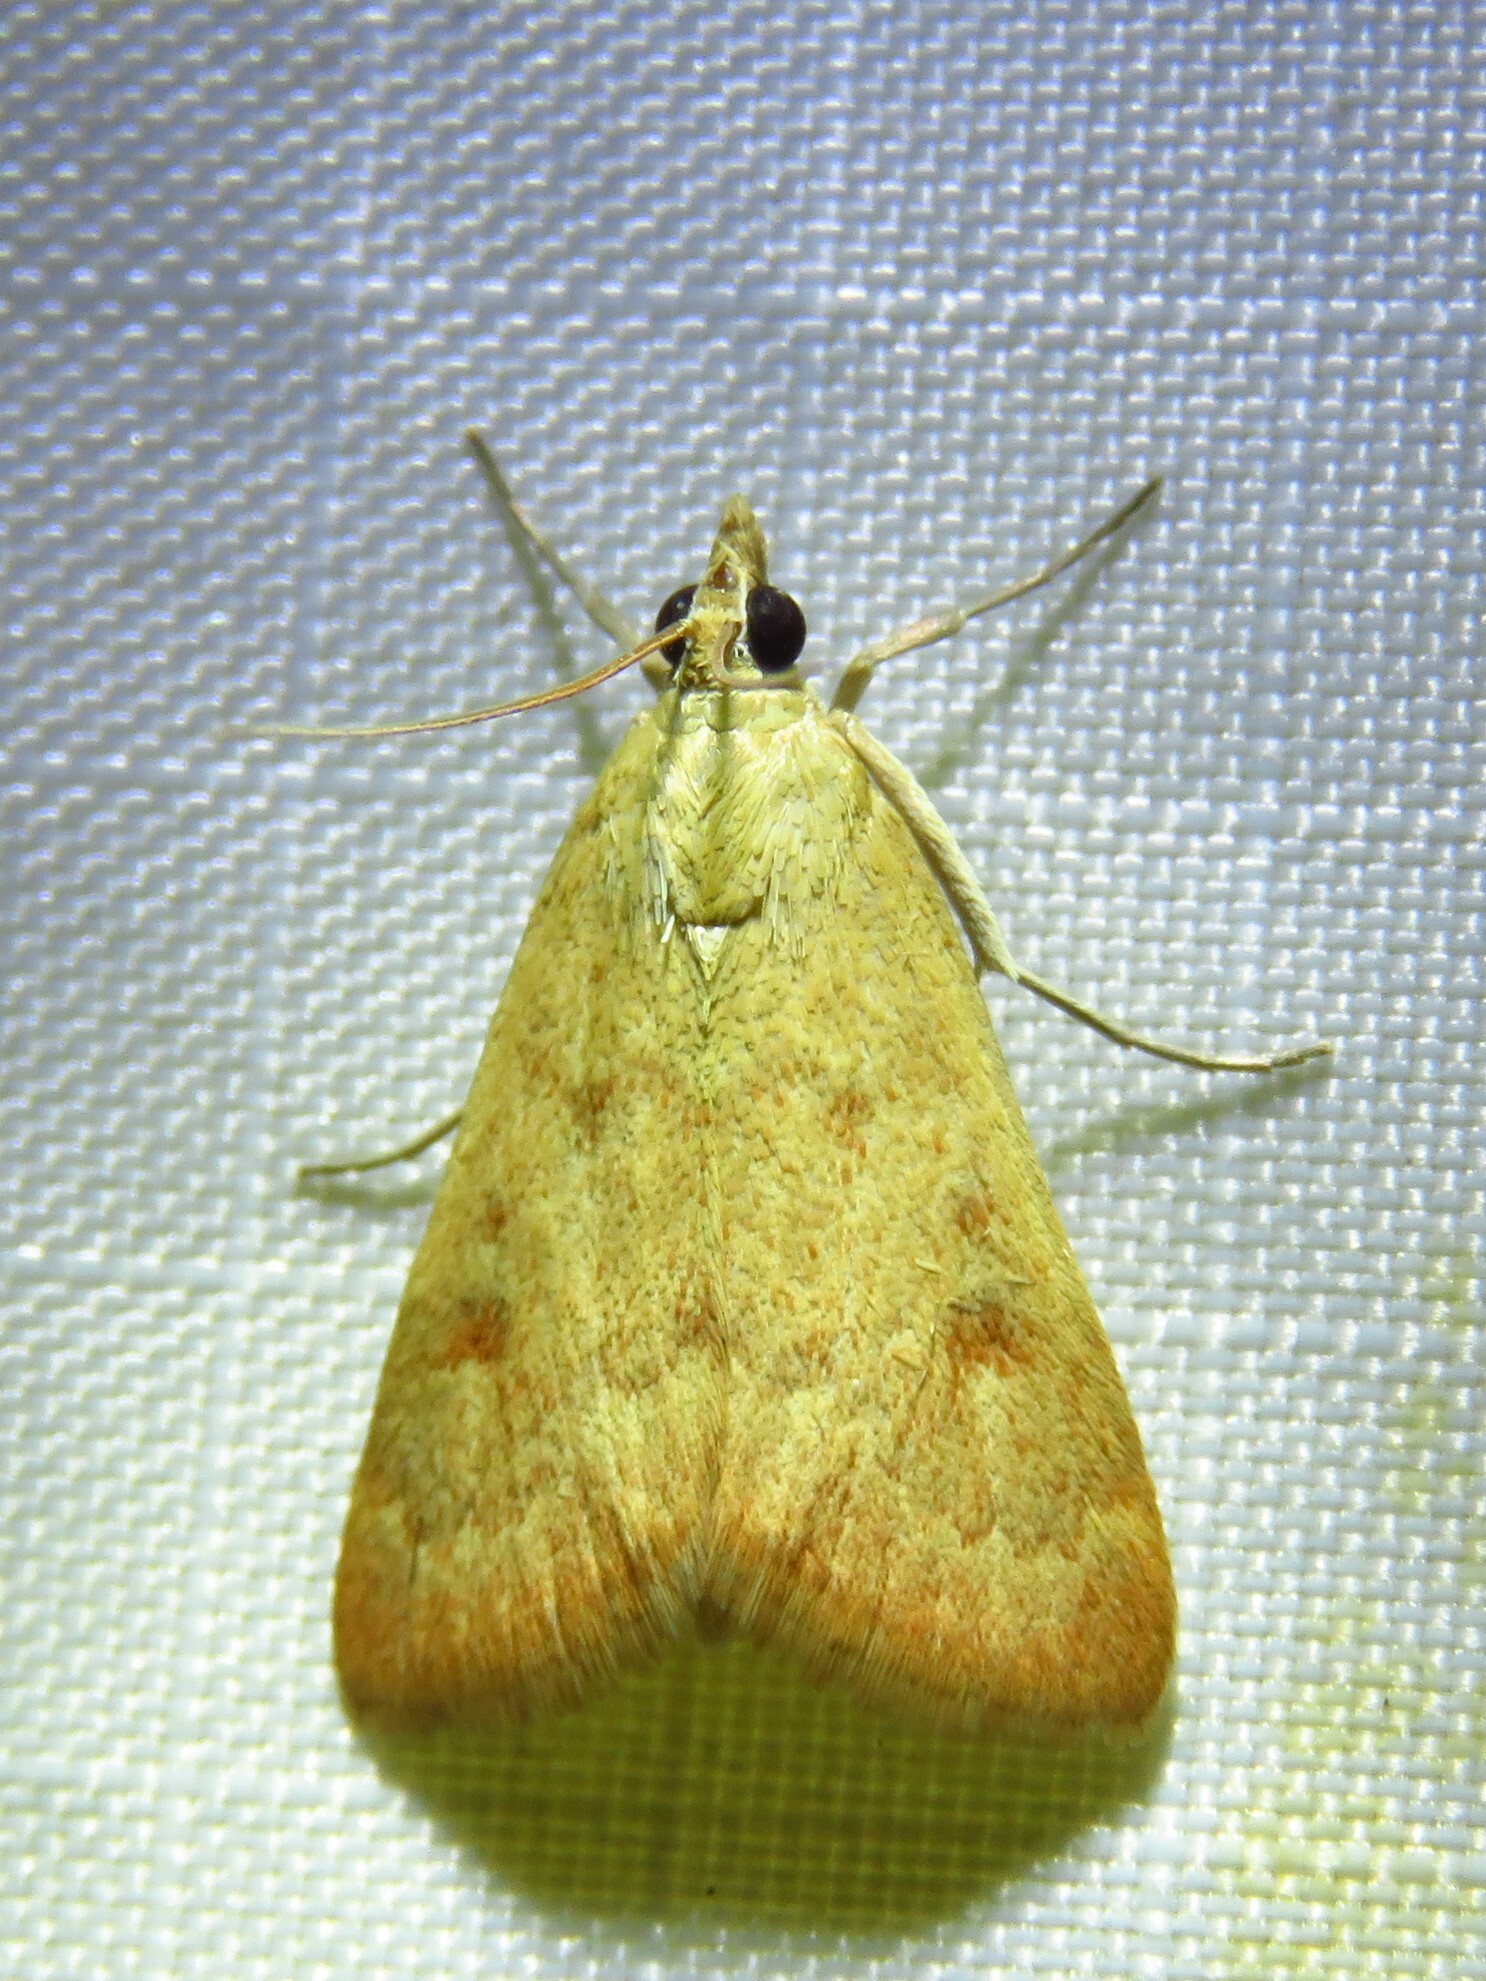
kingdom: Animalia
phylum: Arthropoda
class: Insecta
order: Lepidoptera
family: Crambidae
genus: Achyra
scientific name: Achyra rantalis
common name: Garden webworm
